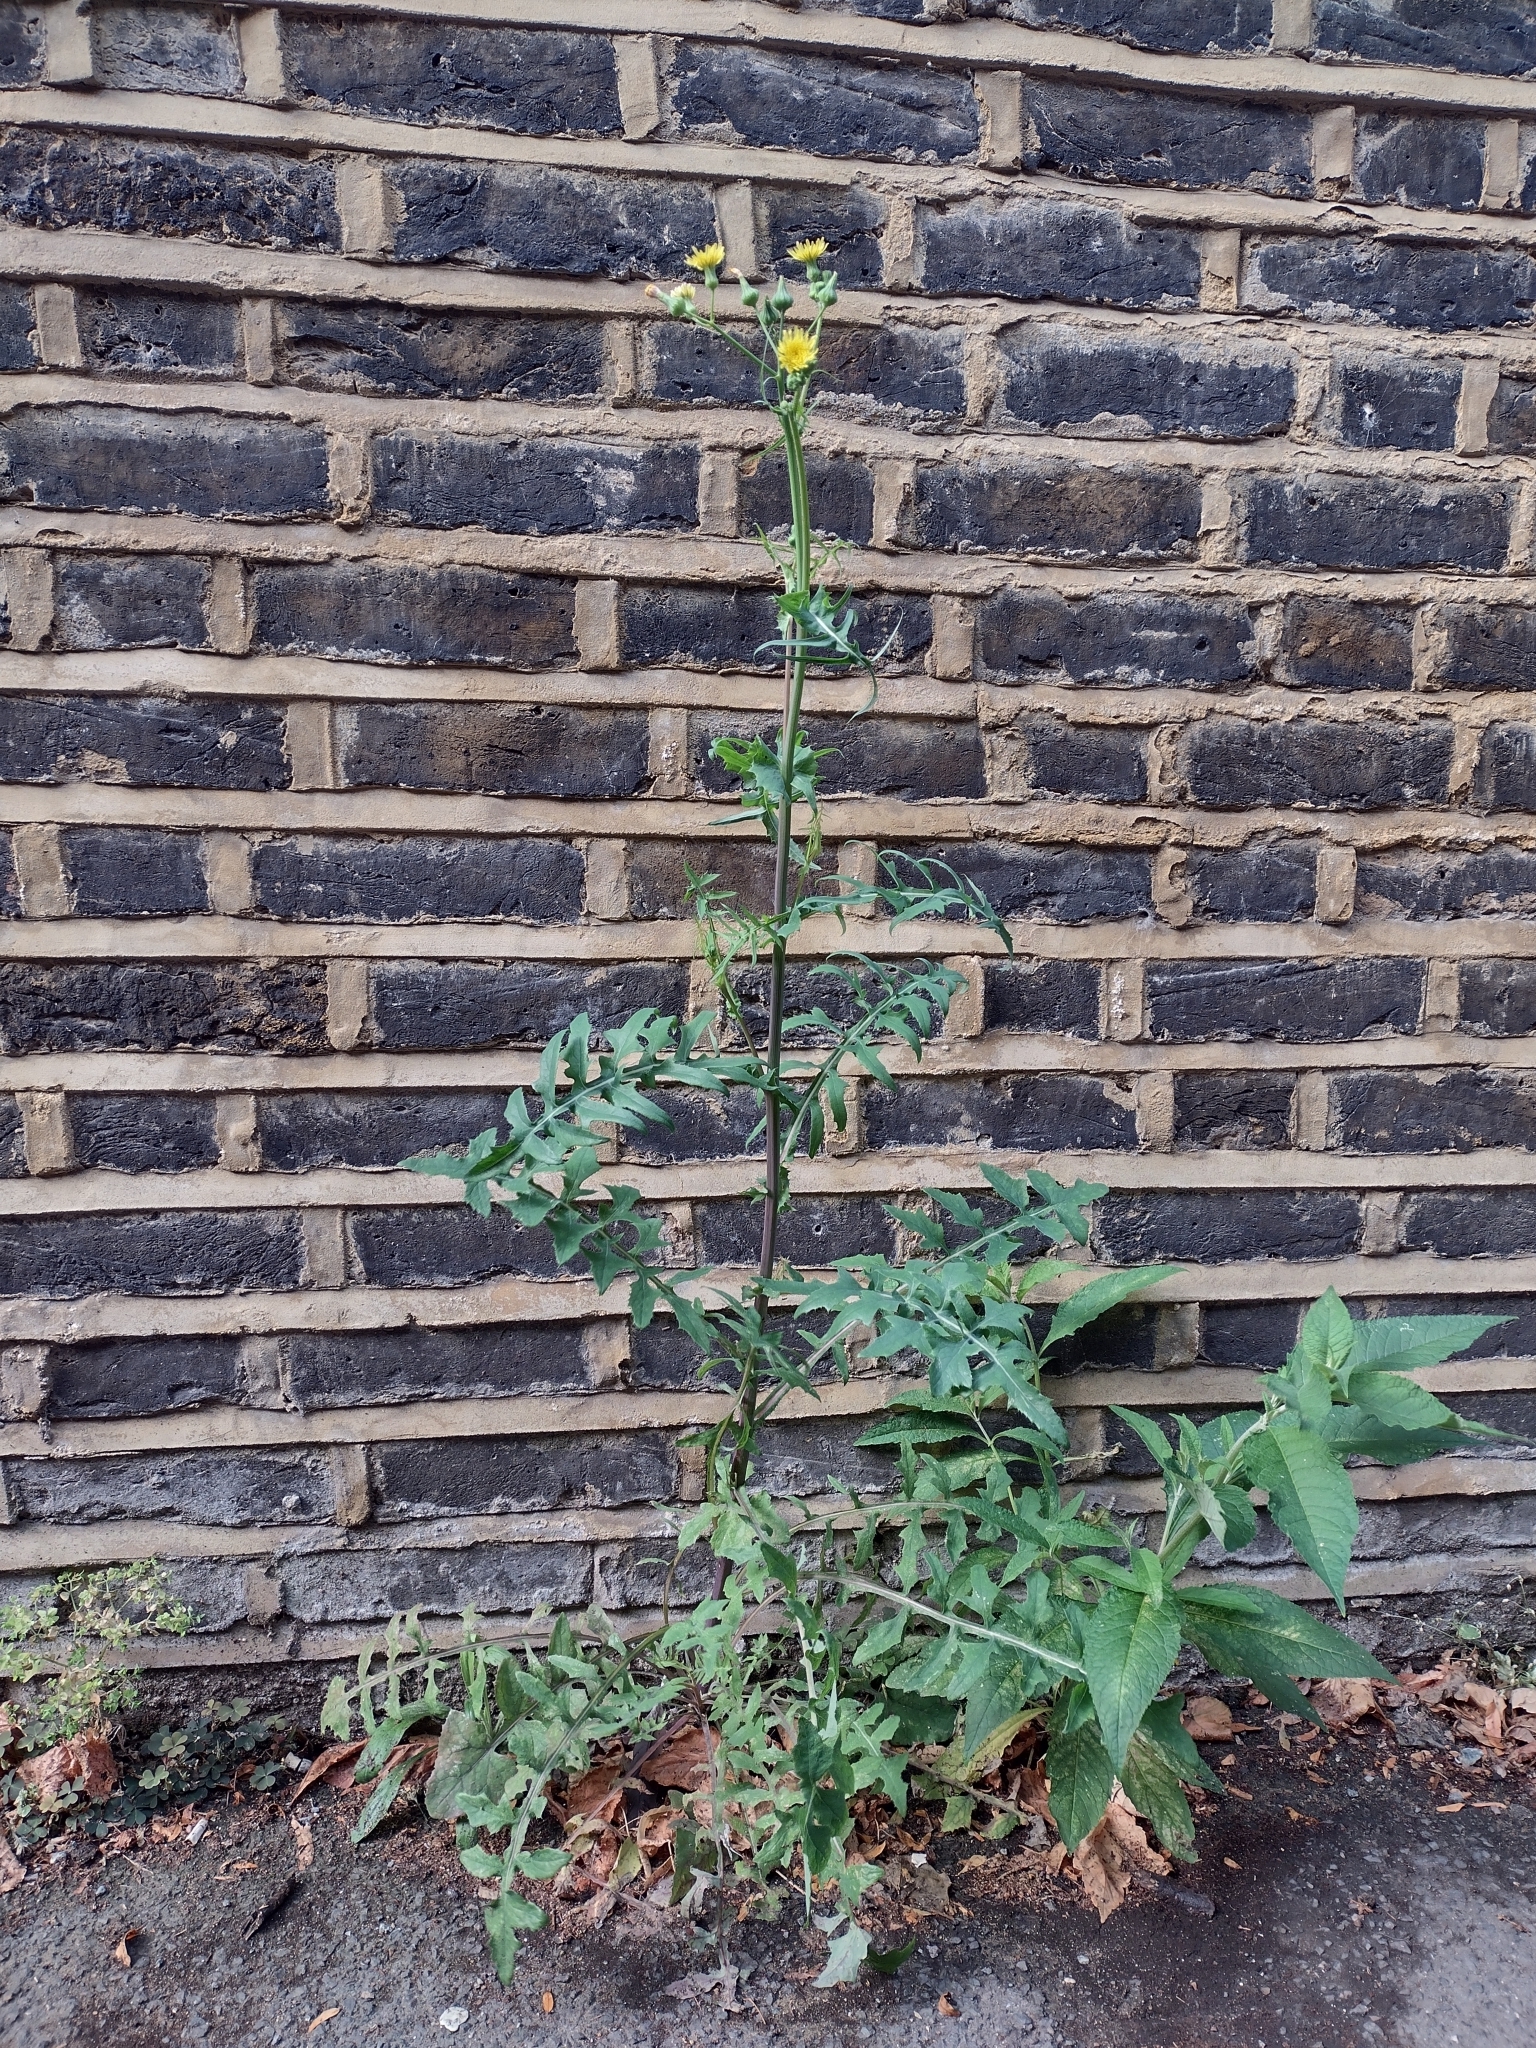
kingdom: Plantae
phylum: Tracheophyta
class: Magnoliopsida
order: Asterales
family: Asteraceae
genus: Sonchus
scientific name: Sonchus oleraceus
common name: Common sowthistle
